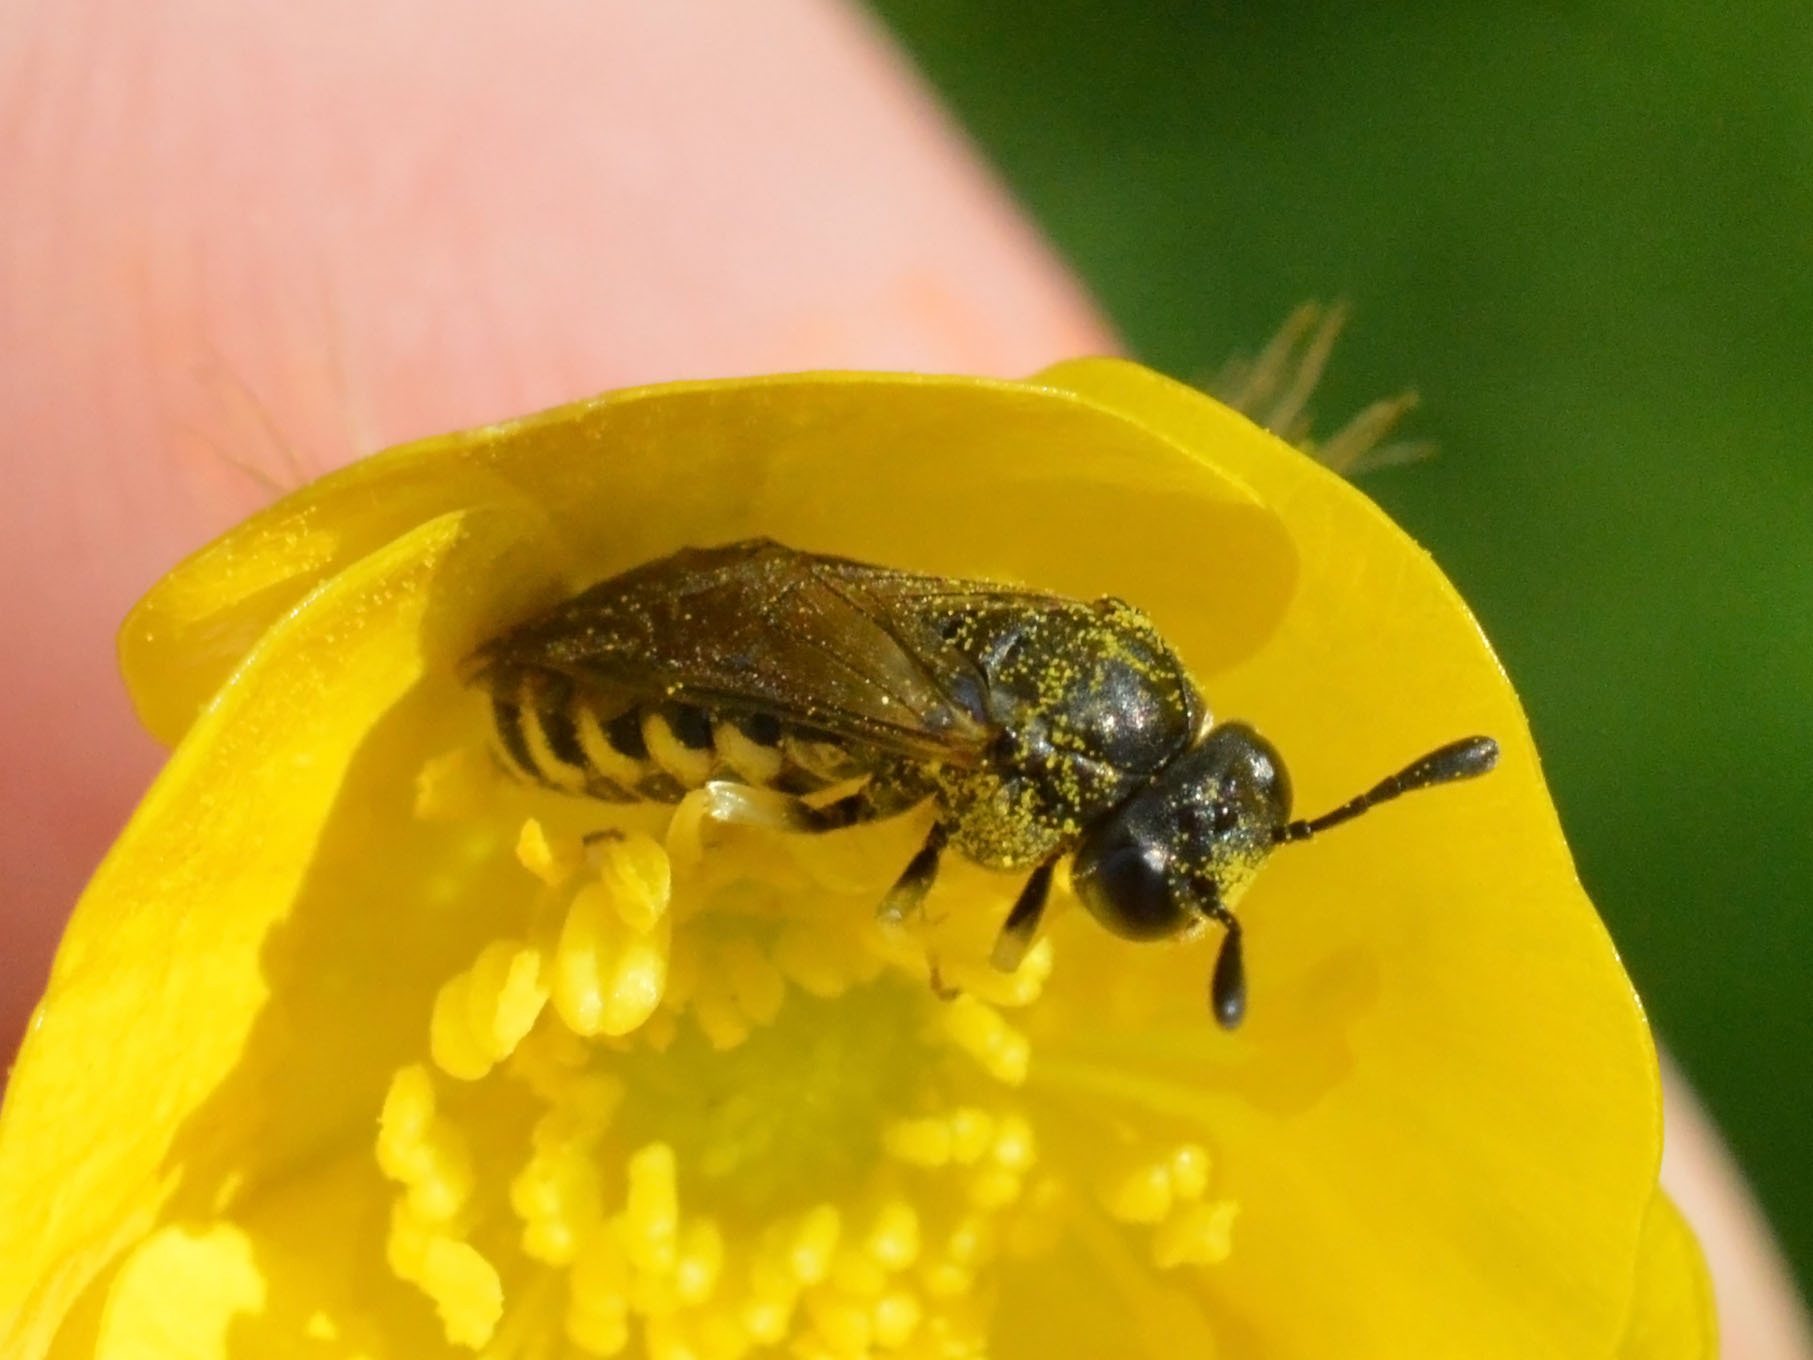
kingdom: Animalia
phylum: Arthropoda
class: Insecta
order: Hymenoptera
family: Cimbicidae
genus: Corynis
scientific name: Corynis crassicornis
